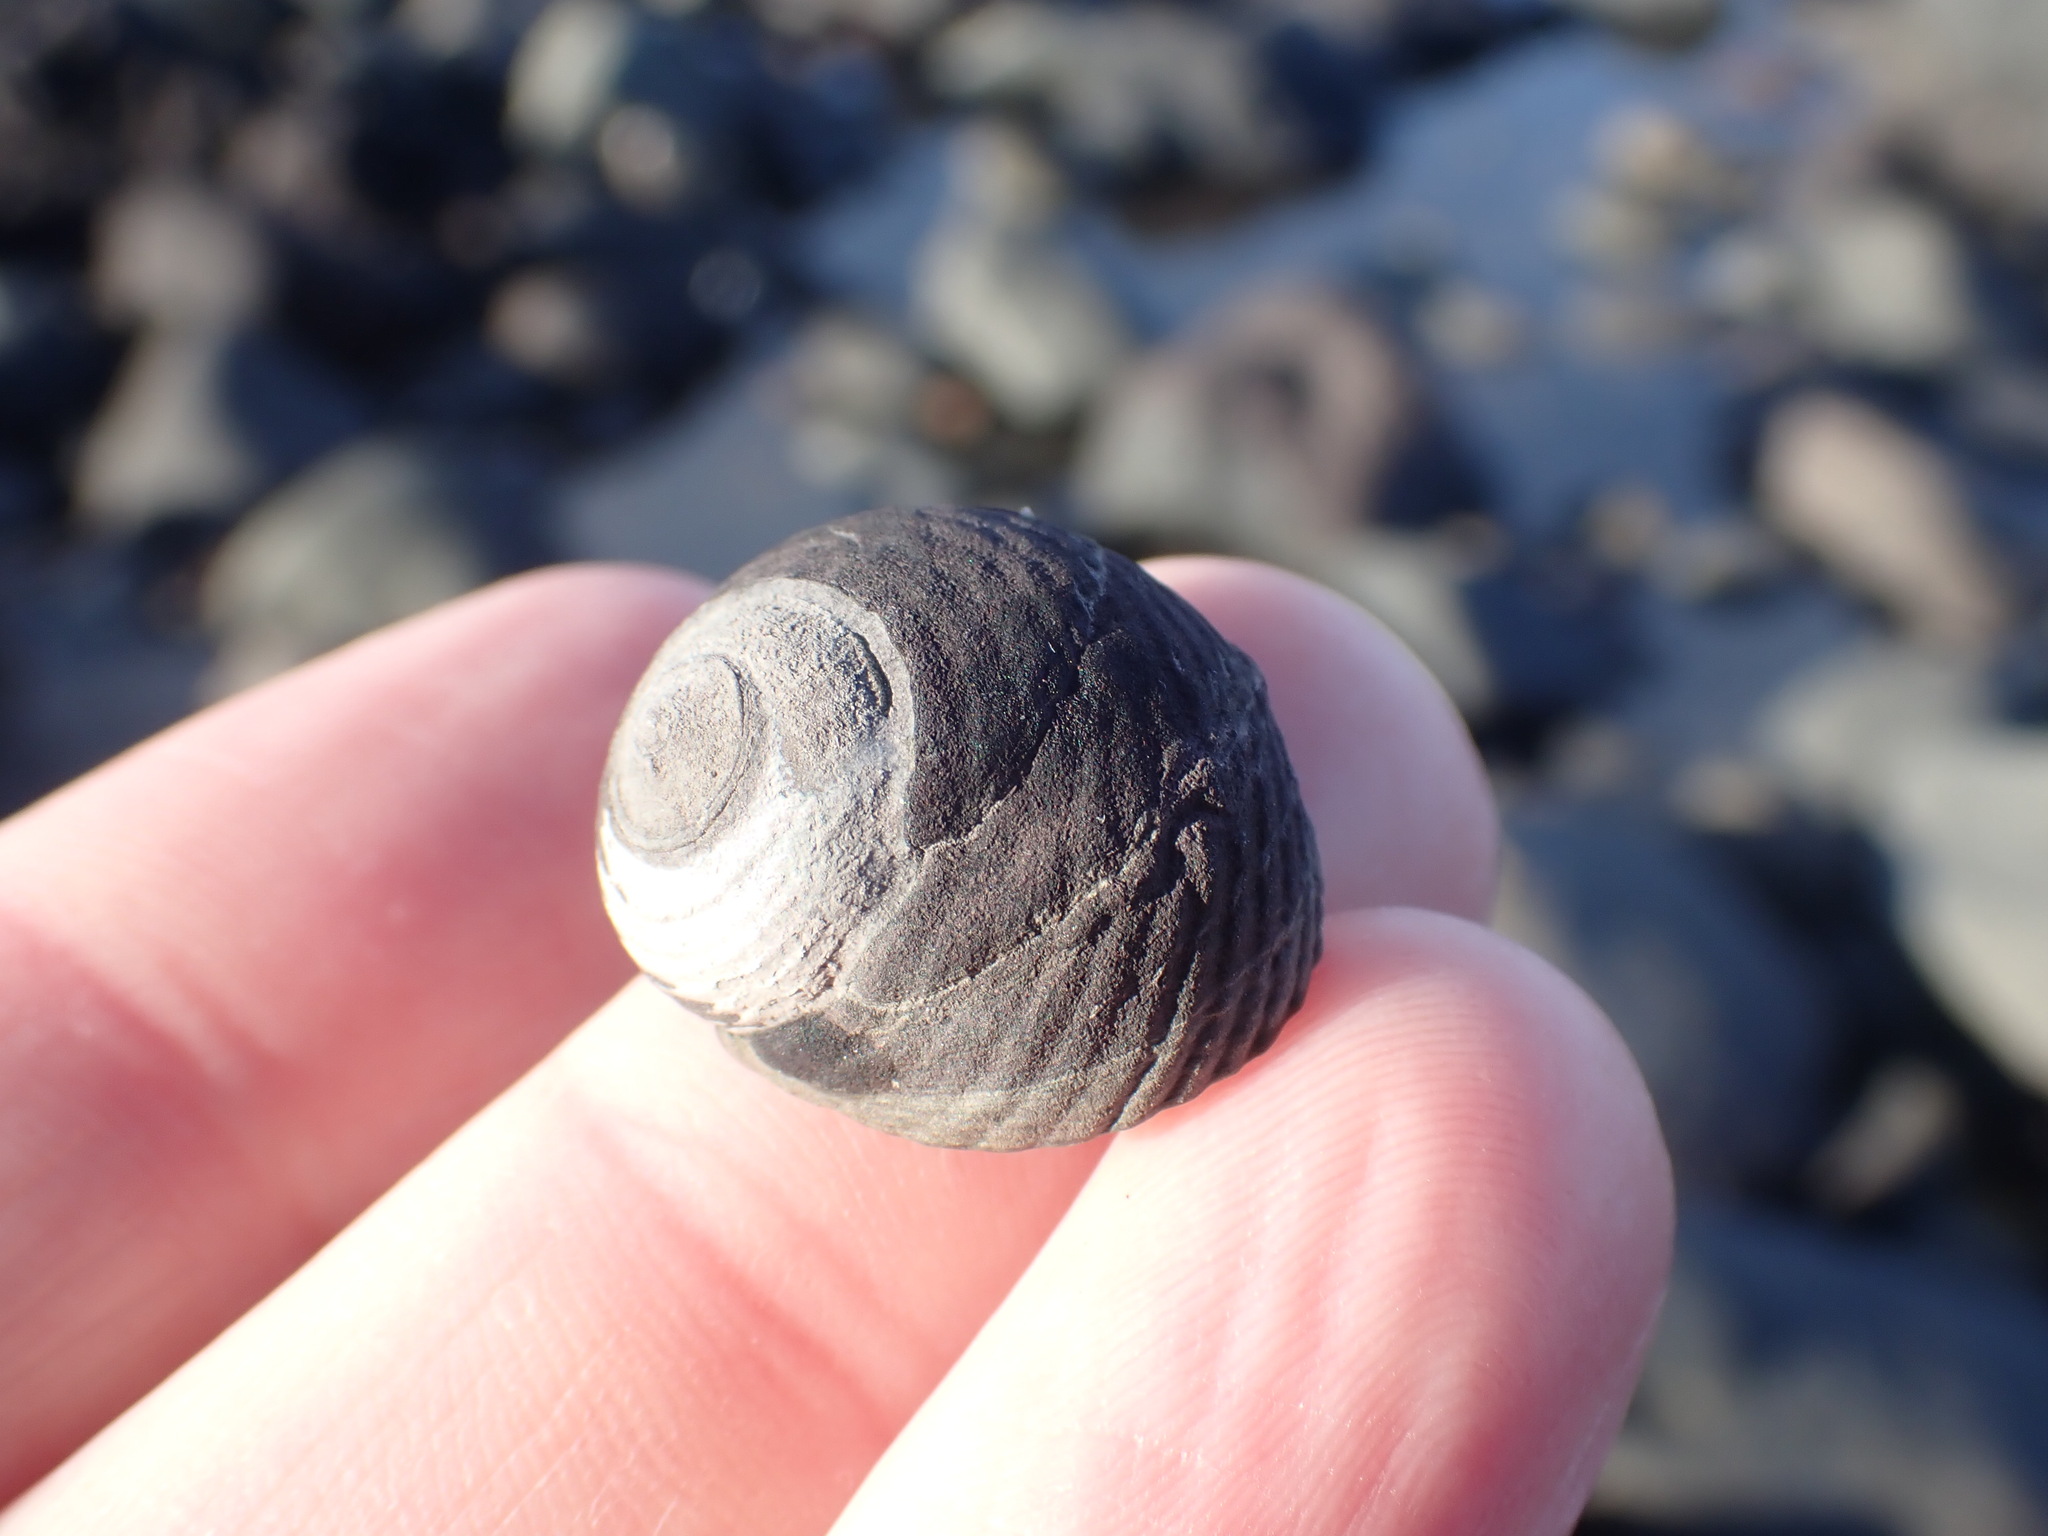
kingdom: Animalia
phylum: Mollusca
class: Gastropoda
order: Trochida
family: Trochidae
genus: Diloma
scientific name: Diloma zelandicum
